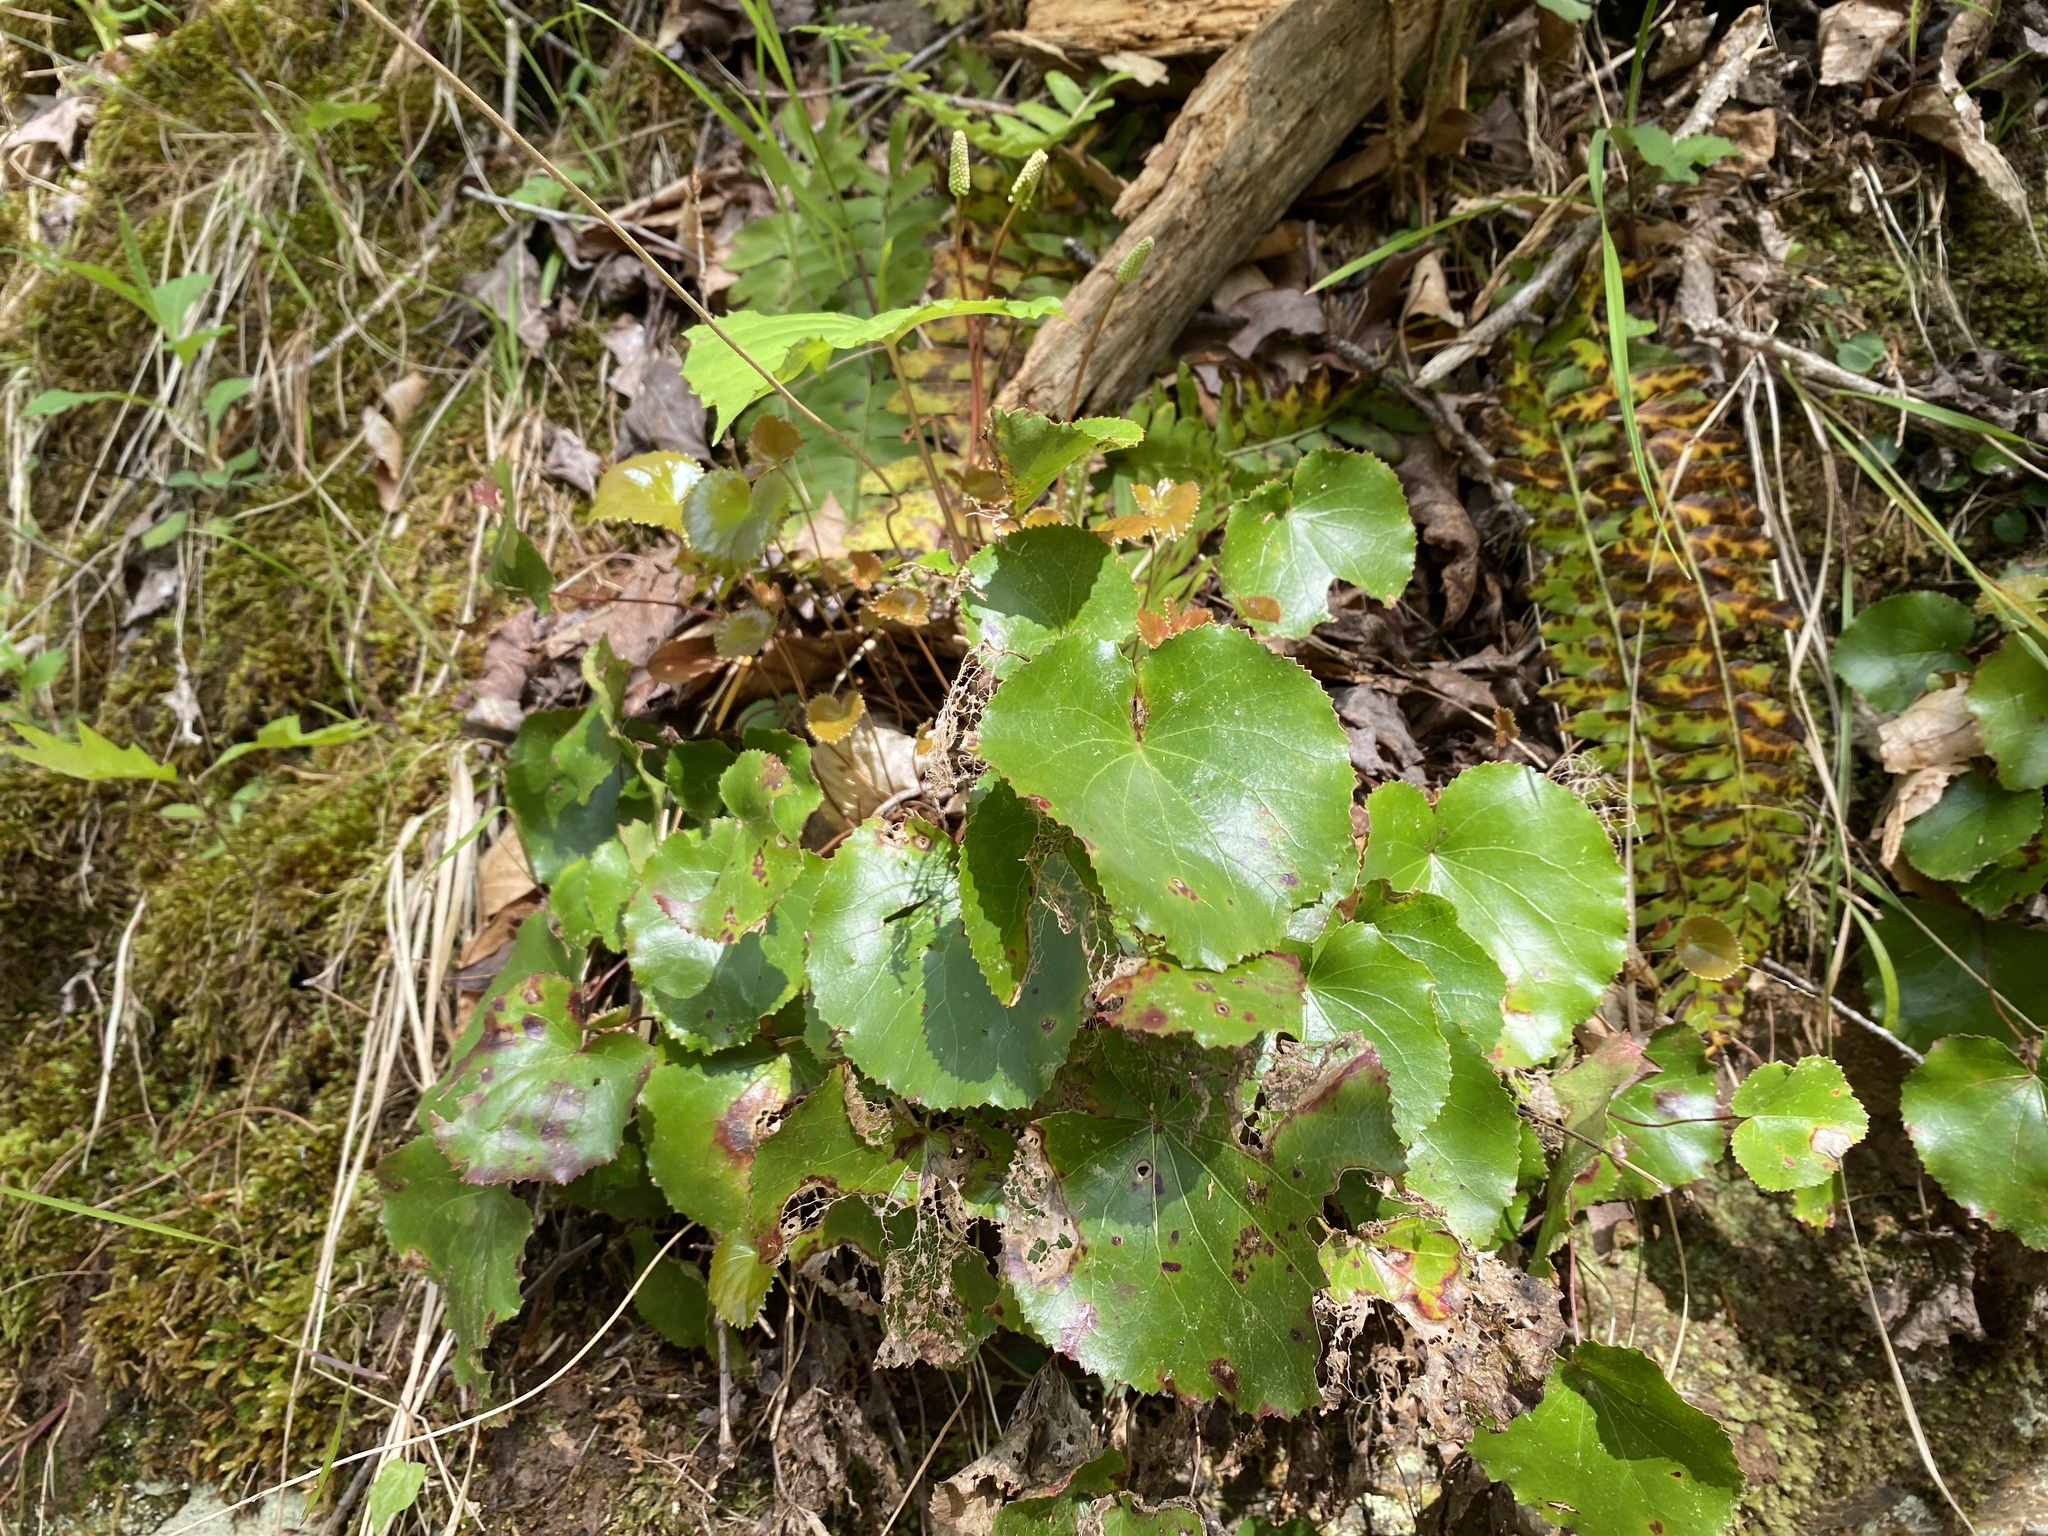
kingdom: Plantae
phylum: Tracheophyta
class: Magnoliopsida
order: Ericales
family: Diapensiaceae
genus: Galax
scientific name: Galax urceolata
